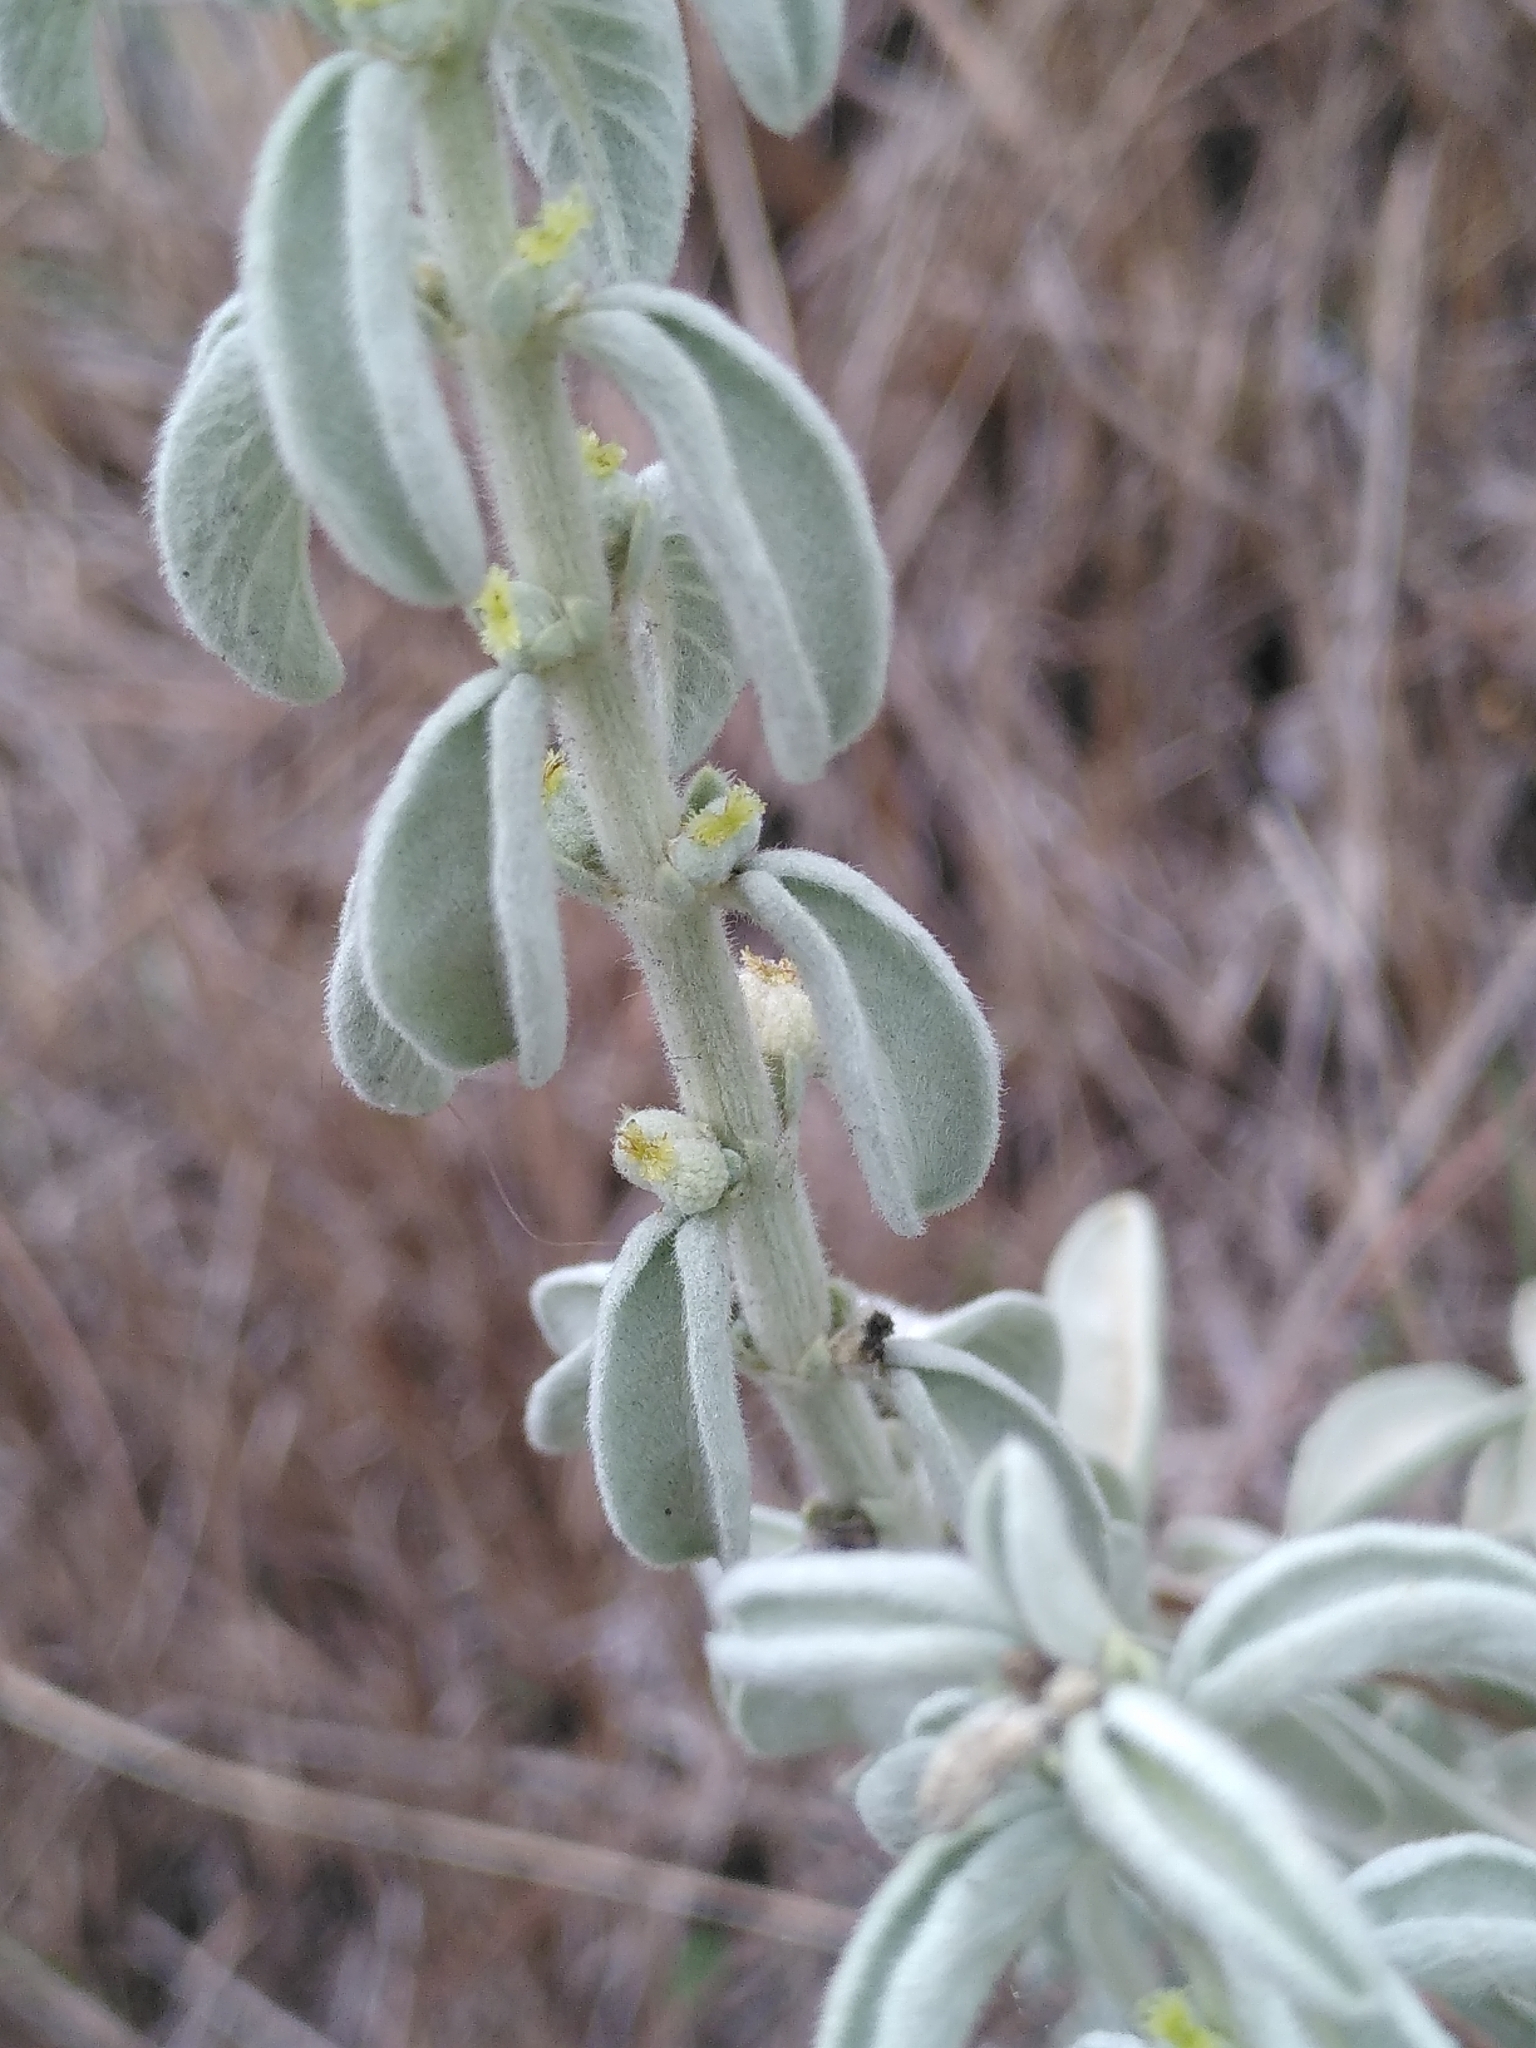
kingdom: Plantae
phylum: Tracheophyta
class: Magnoliopsida
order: Malpighiales
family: Euphorbiaceae
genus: Mercurialis
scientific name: Mercurialis tomentosa
